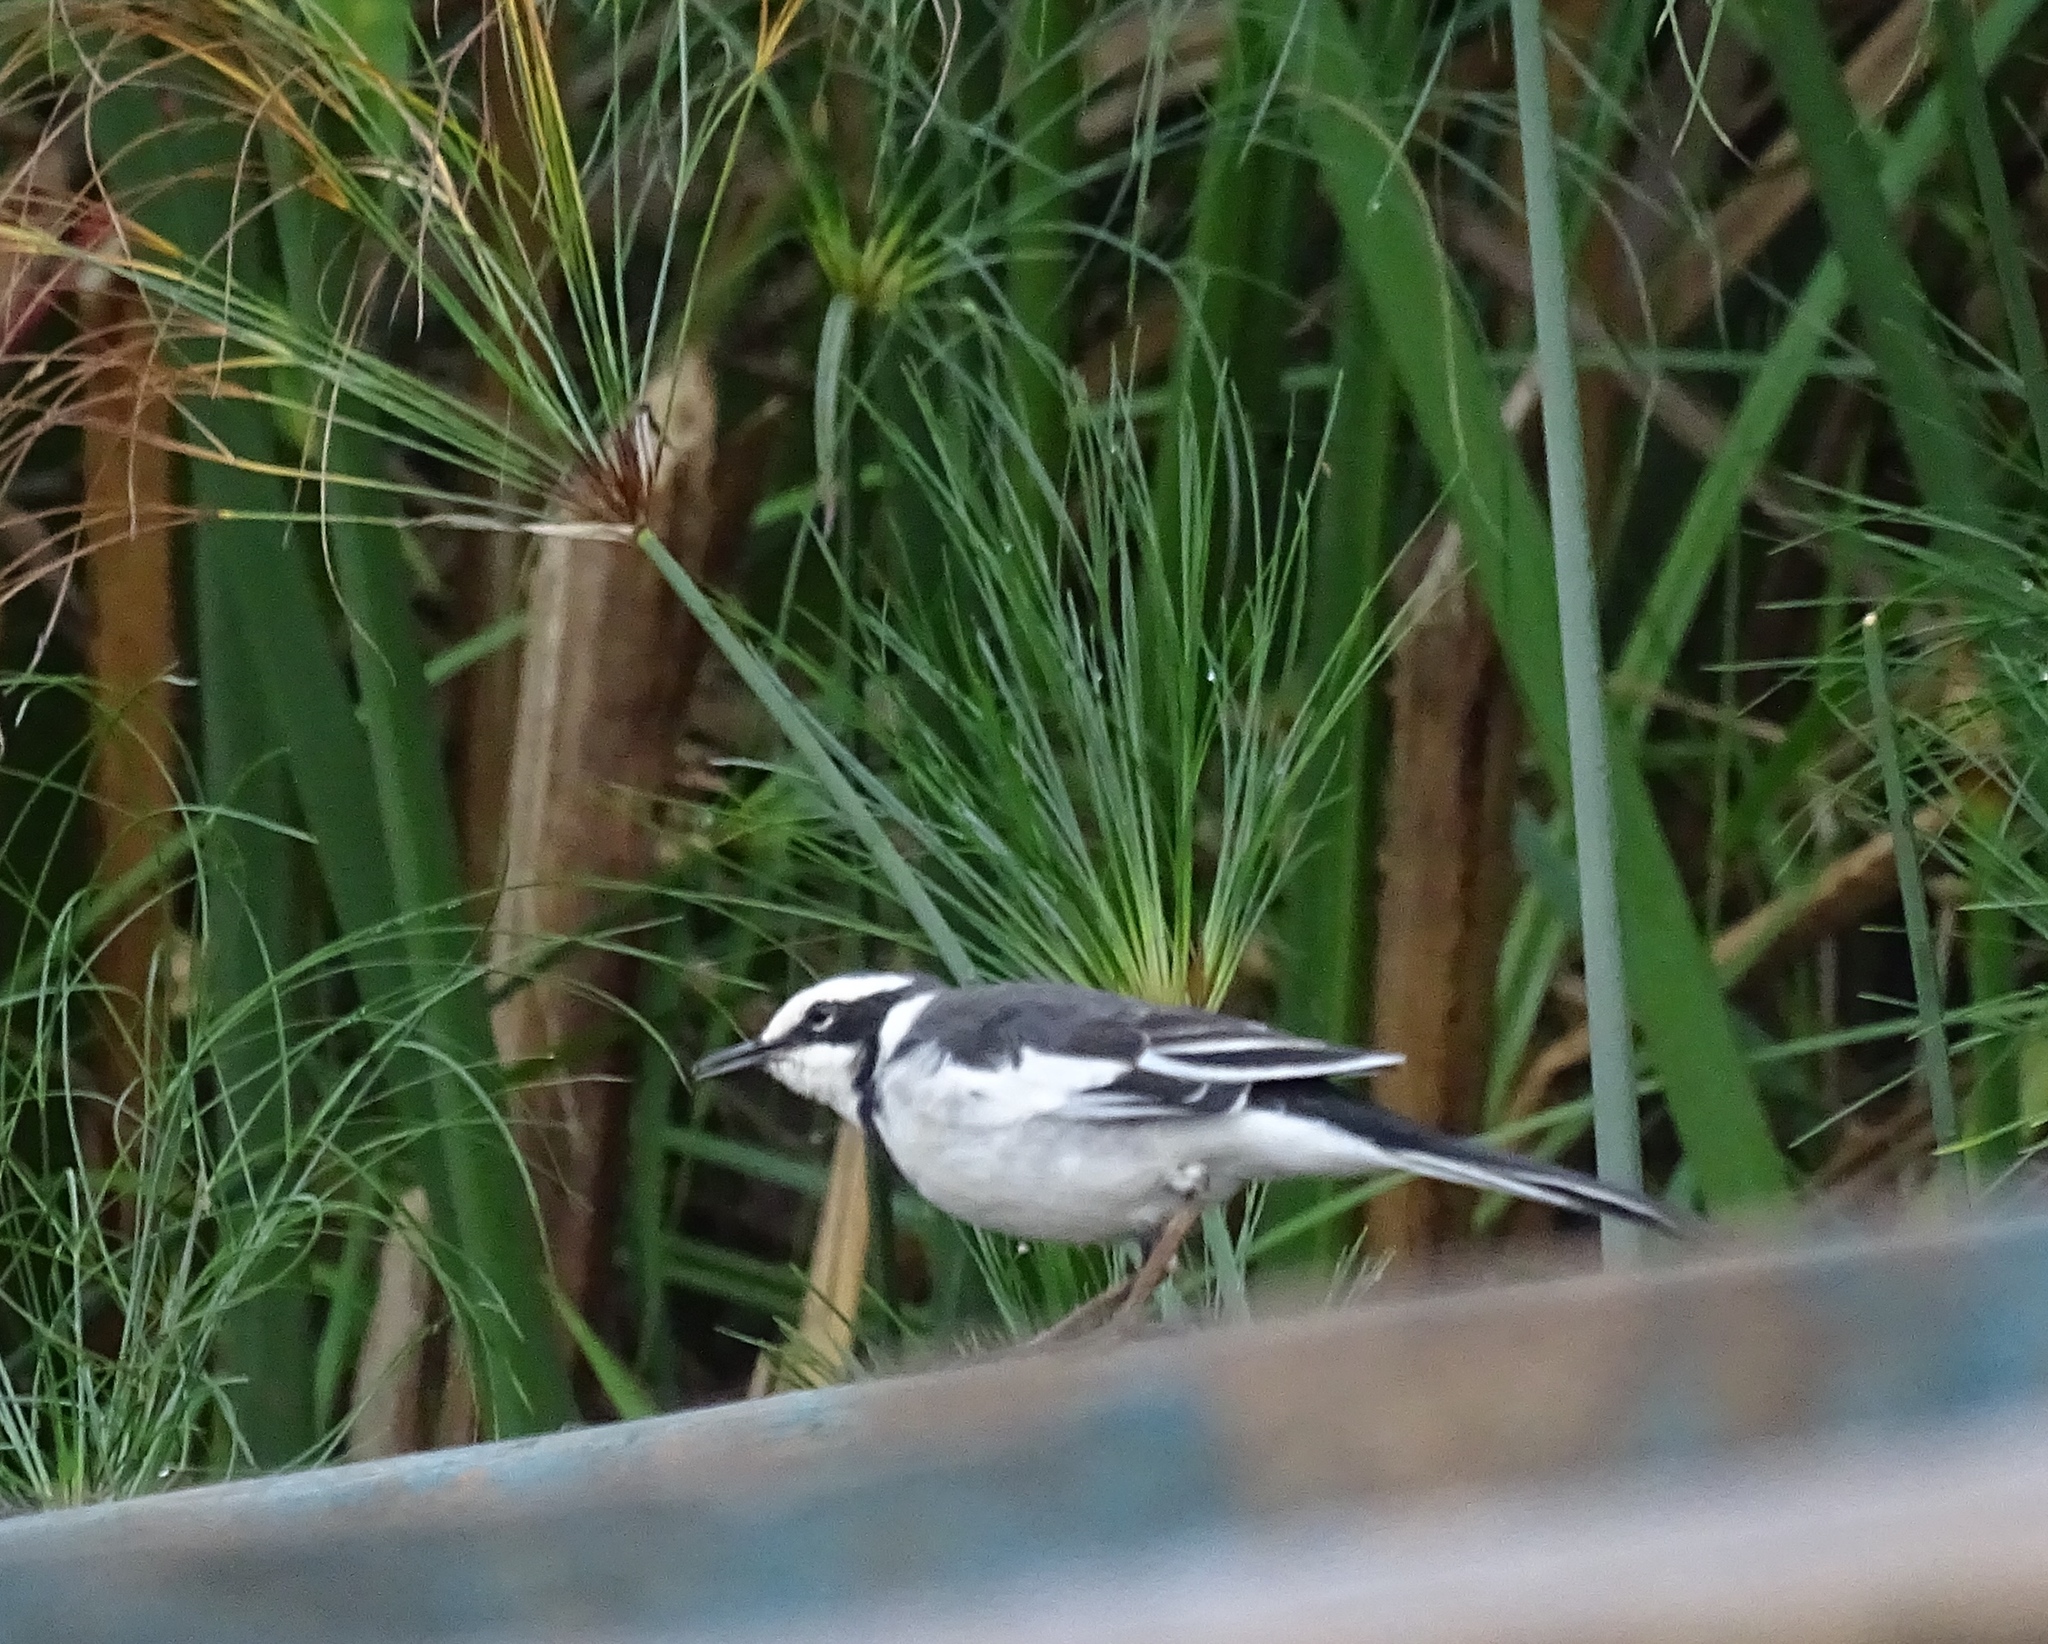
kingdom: Animalia
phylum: Chordata
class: Aves
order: Passeriformes
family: Motacillidae
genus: Motacilla
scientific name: Motacilla aguimp
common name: African pied wagtail
